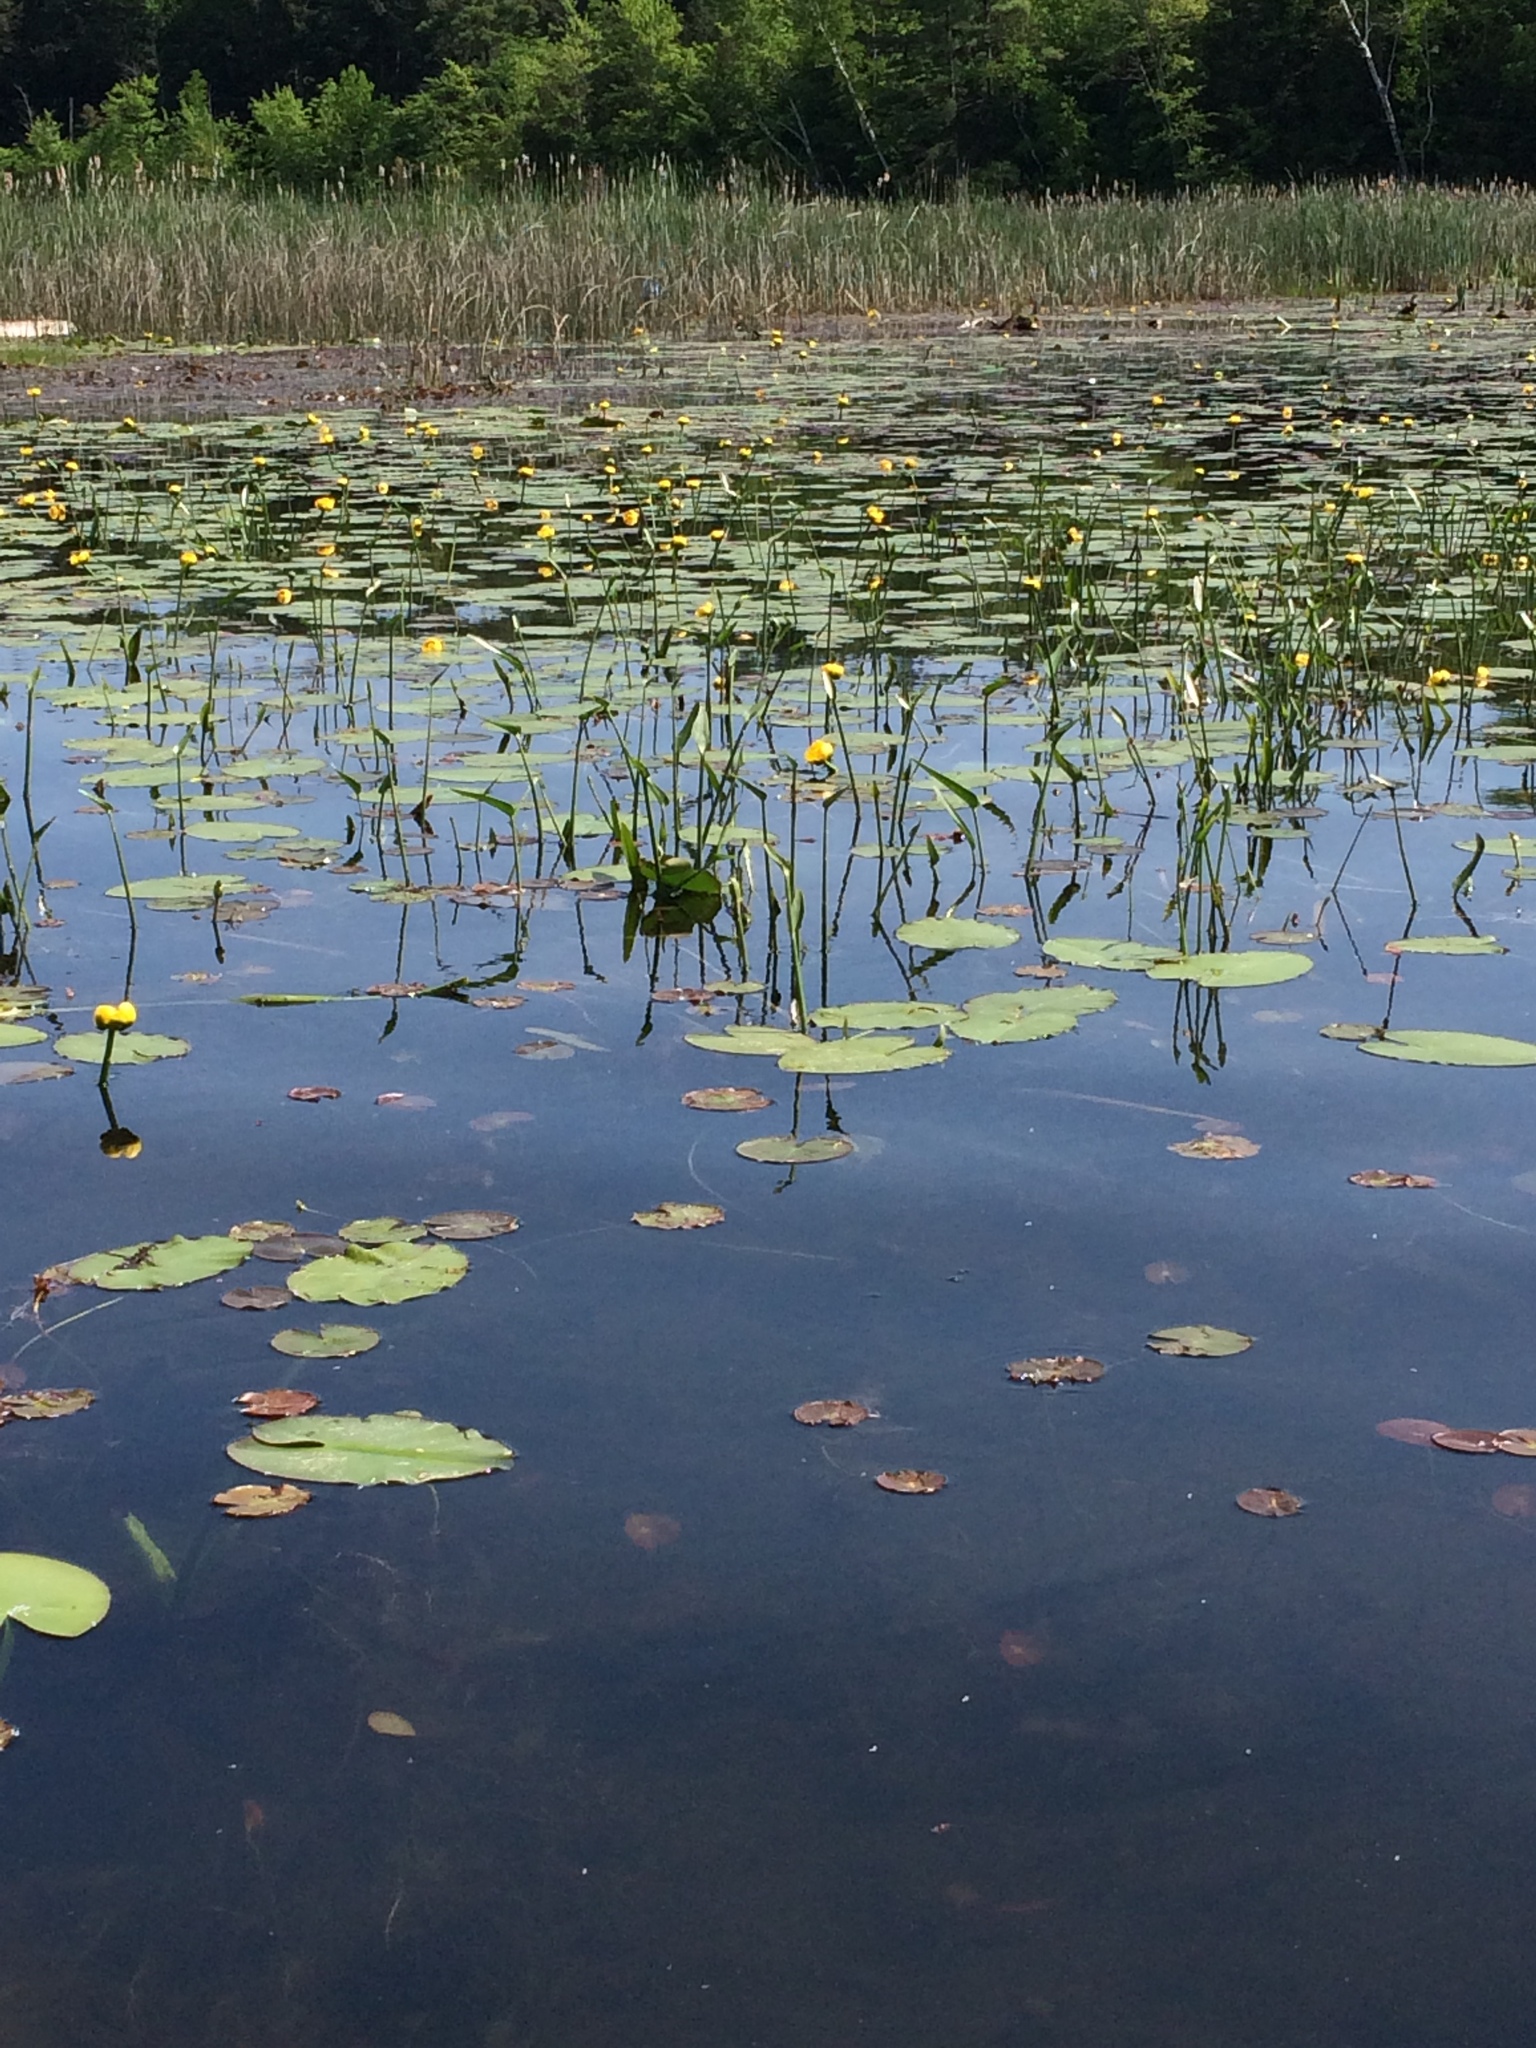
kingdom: Plantae
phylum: Tracheophyta
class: Liliopsida
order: Commelinales
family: Pontederiaceae
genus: Pontederia
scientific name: Pontederia cordata
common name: Pickerelweed
